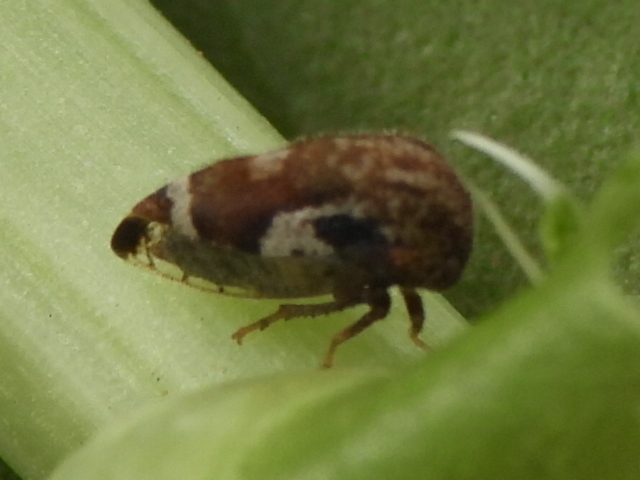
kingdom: Animalia
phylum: Arthropoda
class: Insecta
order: Hemiptera
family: Membracidae
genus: Vanduzea
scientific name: Vanduzea segmentata
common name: Membracid bug
